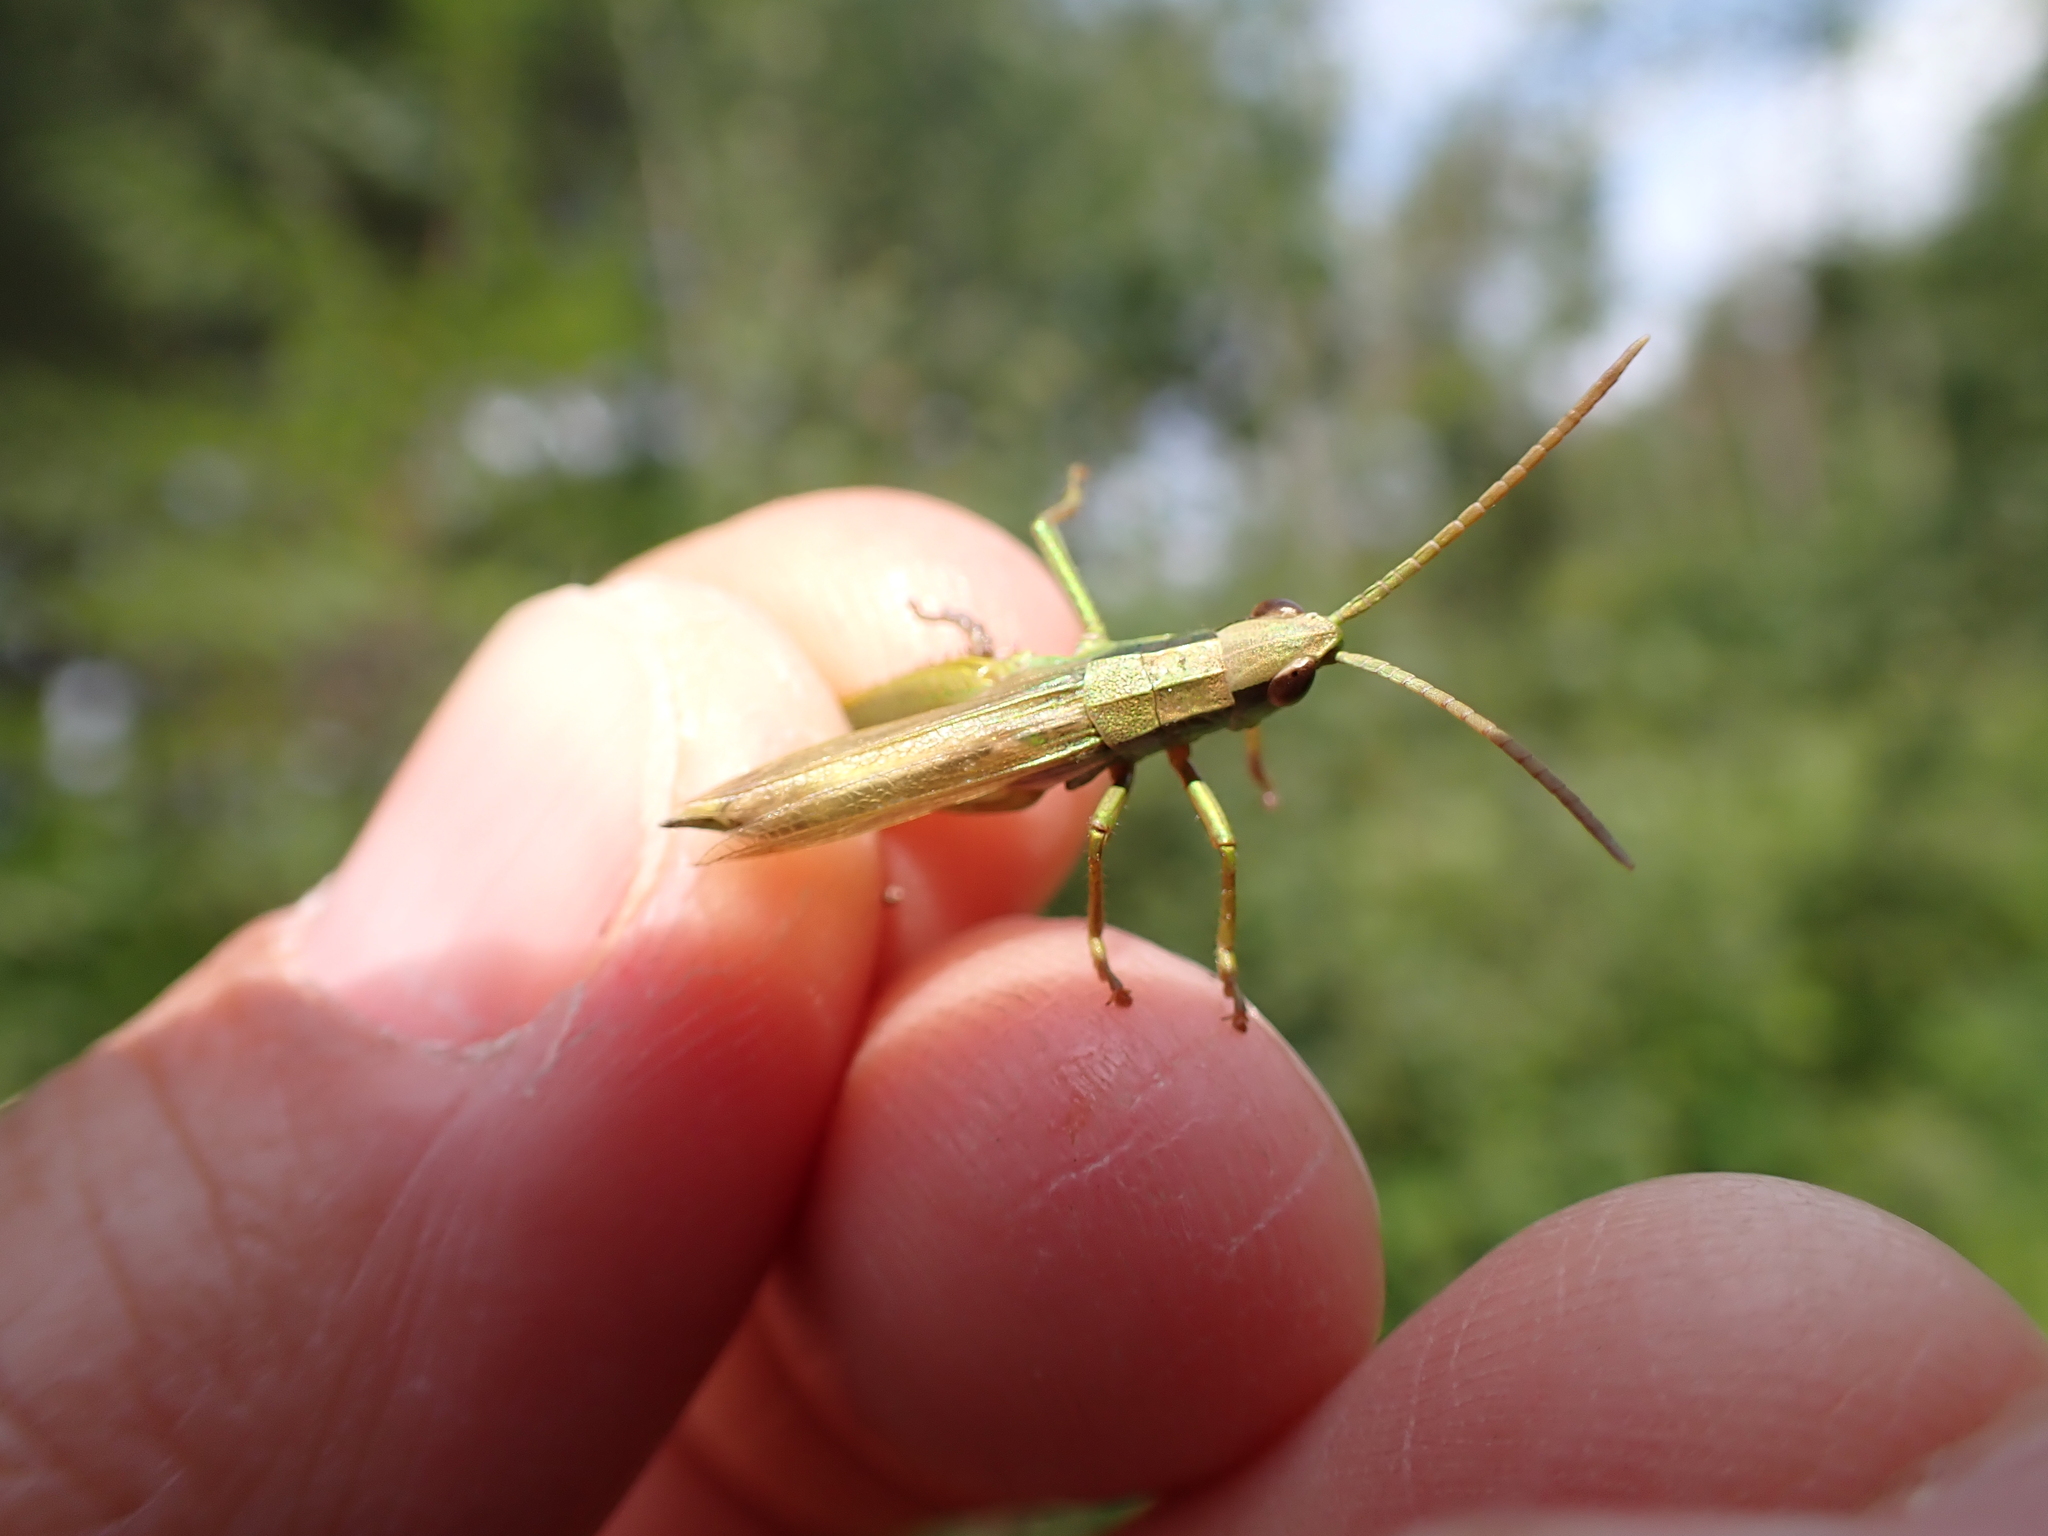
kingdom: Animalia
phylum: Arthropoda
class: Insecta
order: Orthoptera
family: Acrididae
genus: Chrysochraon
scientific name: Chrysochraon dispar
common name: Large gold grasshopper
